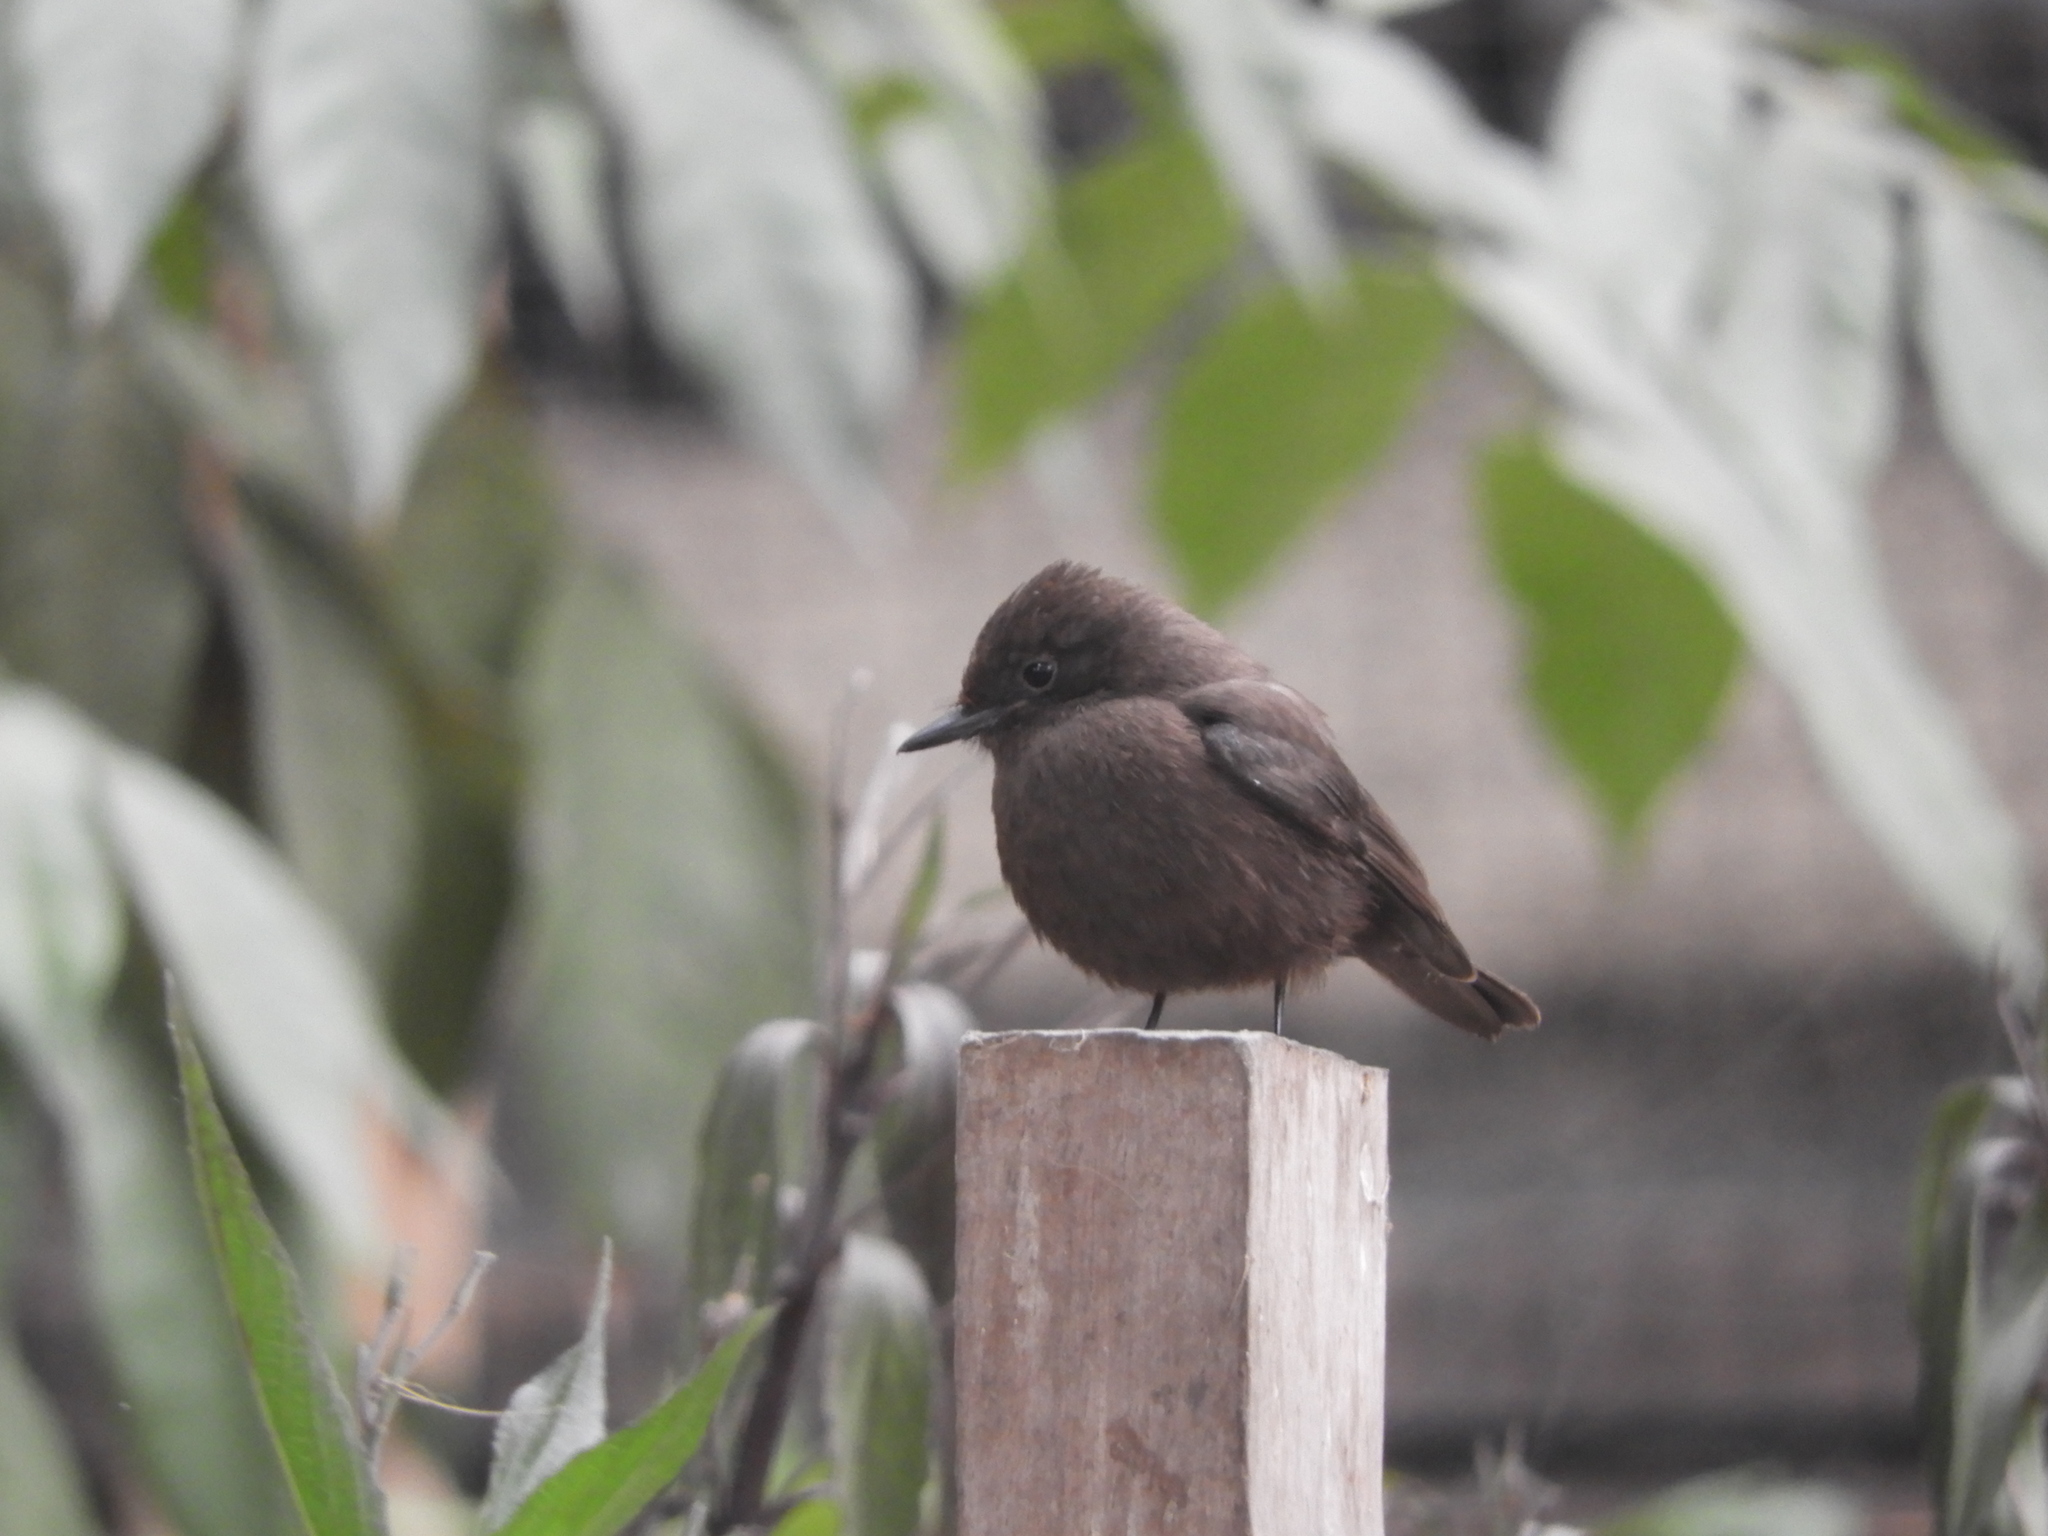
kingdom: Animalia
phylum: Chordata
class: Aves
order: Passeriformes
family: Tyrannidae
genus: Pyrocephalus
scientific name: Pyrocephalus rubinus
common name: Vermilion flycatcher
